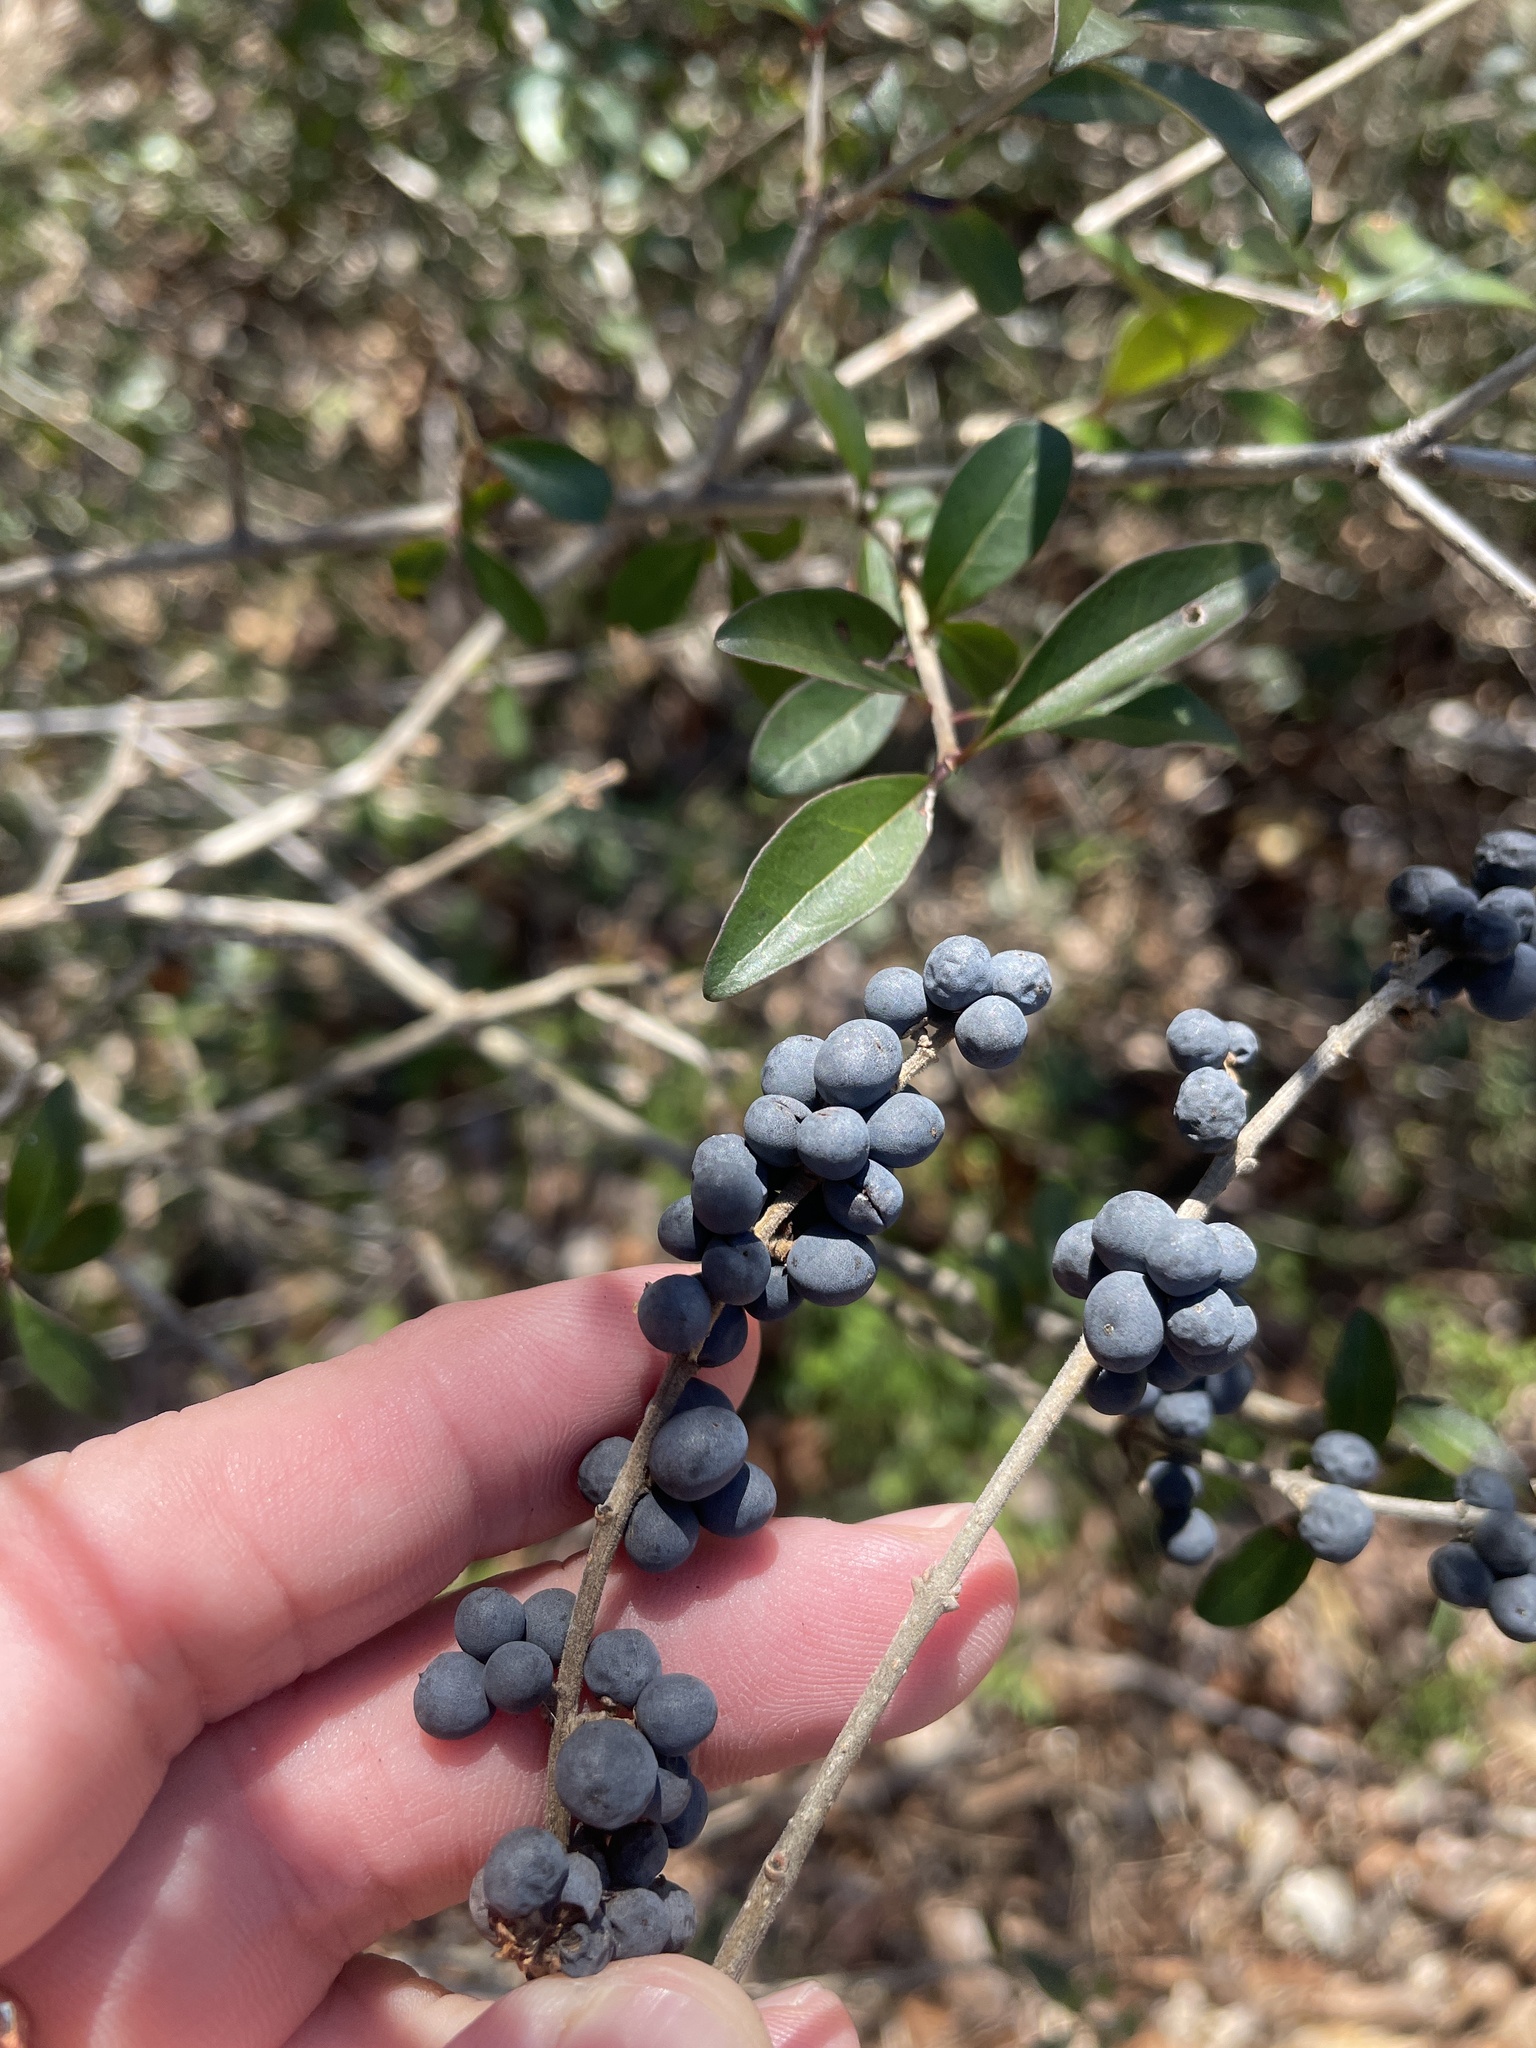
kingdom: Plantae
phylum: Tracheophyta
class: Magnoliopsida
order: Lamiales
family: Oleaceae
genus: Ligustrum
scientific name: Ligustrum quihoui
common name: Waxyleaf privet
